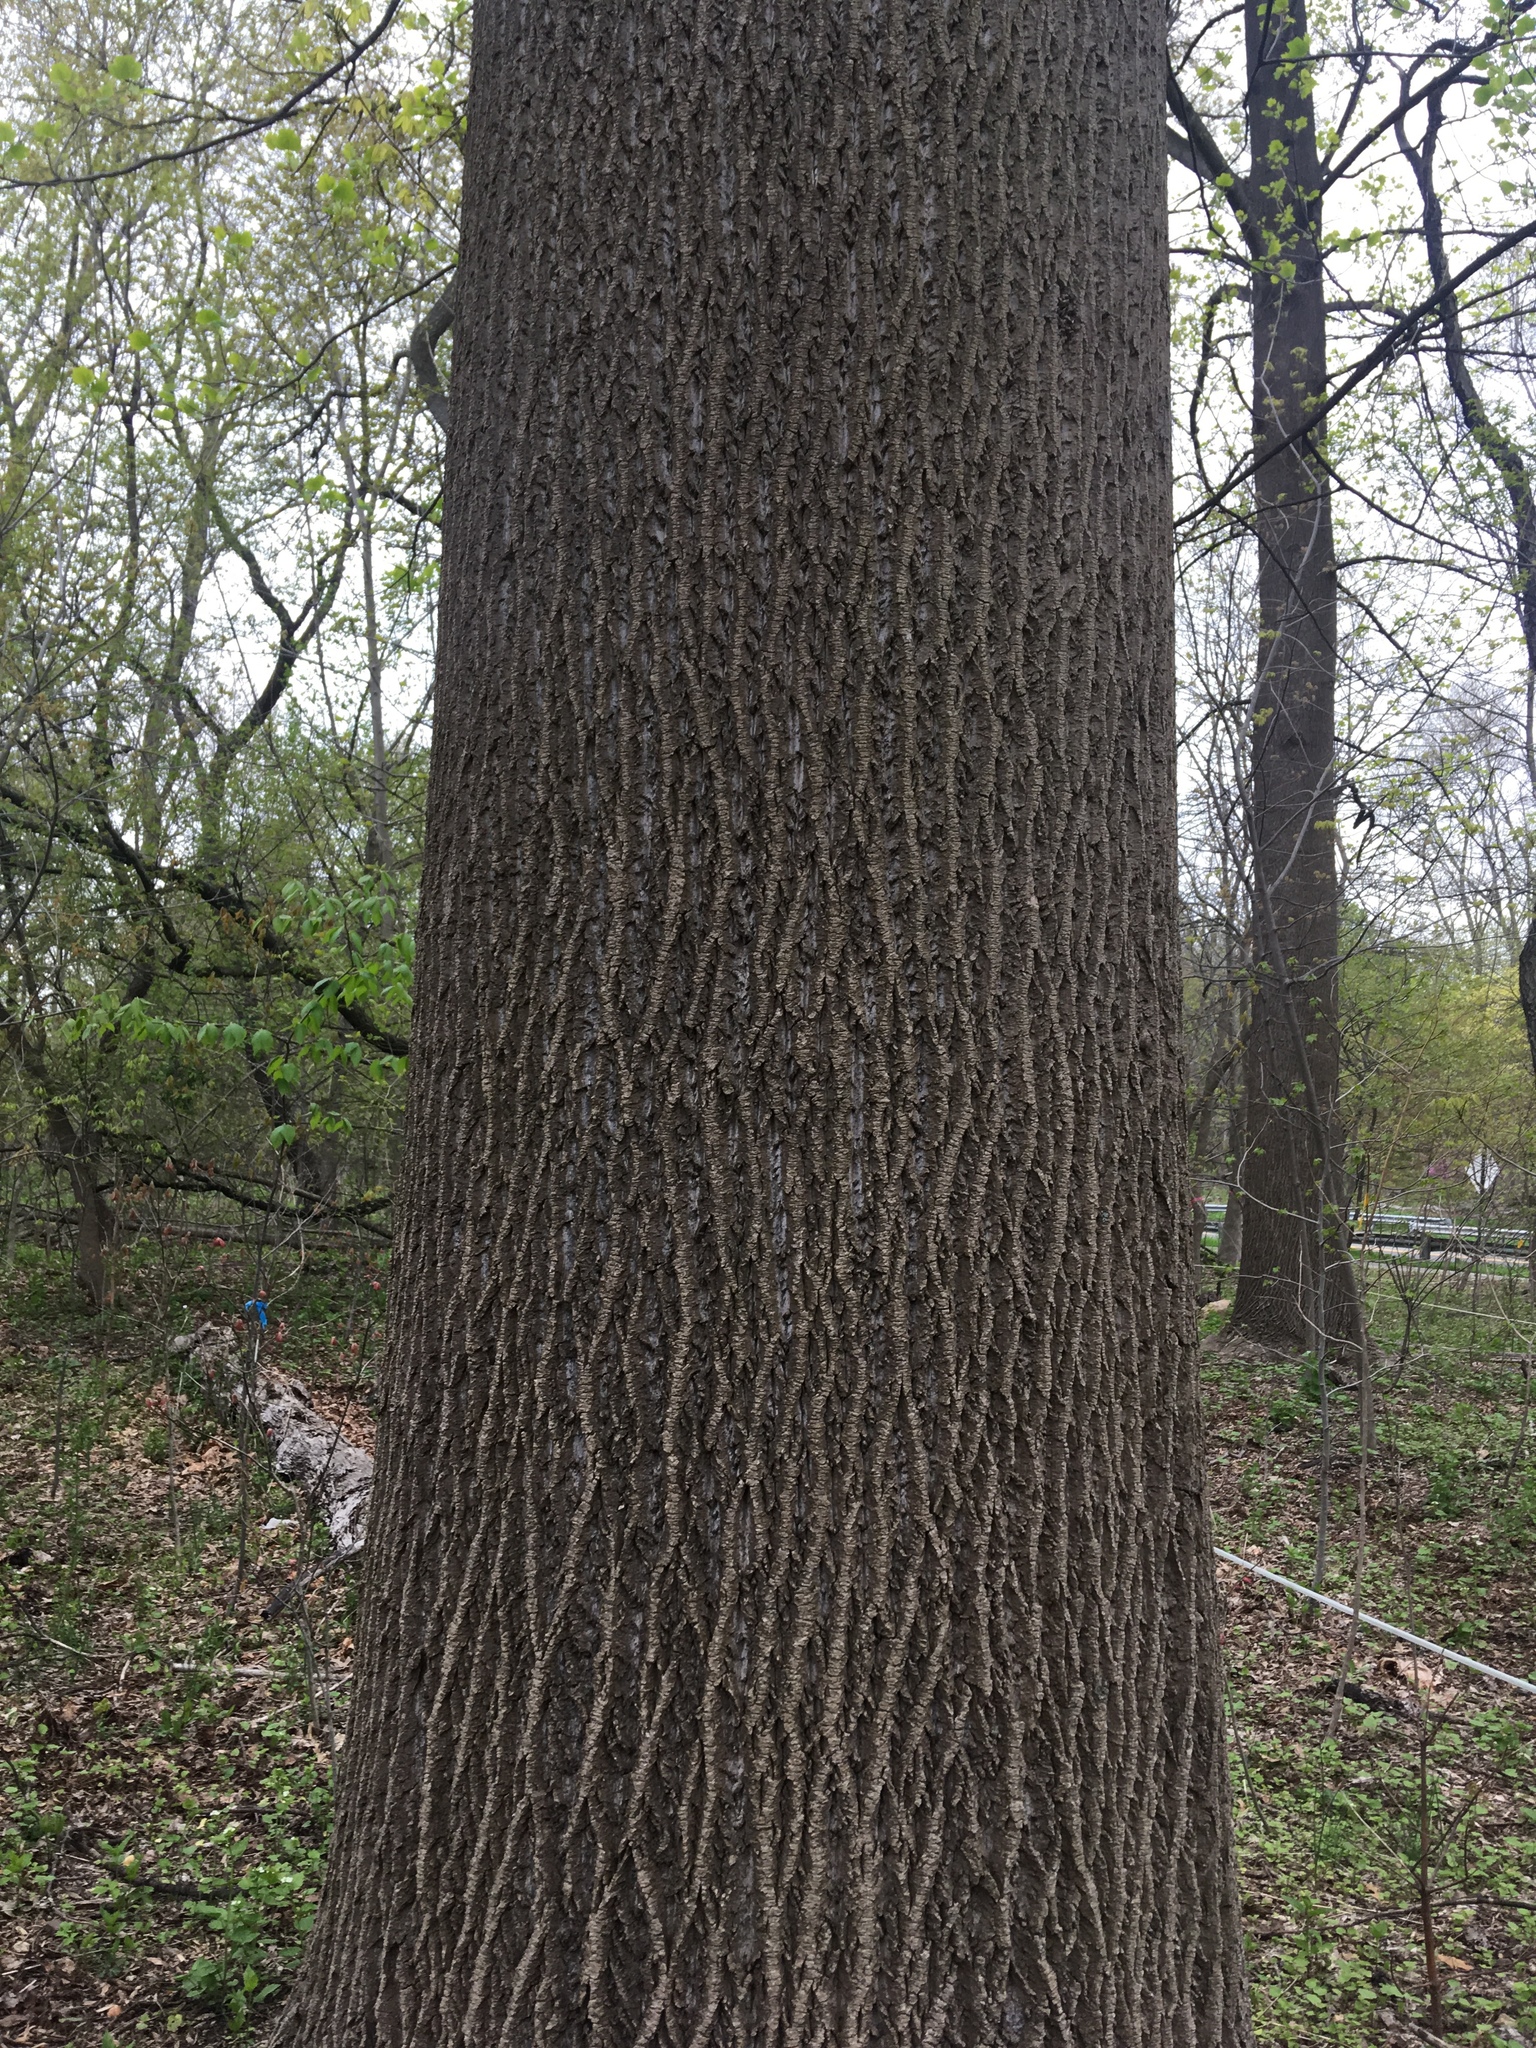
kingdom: Plantae
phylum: Tracheophyta
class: Magnoliopsida
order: Magnoliales
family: Magnoliaceae
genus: Liriodendron
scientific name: Liriodendron tulipifera
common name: Tulip tree
